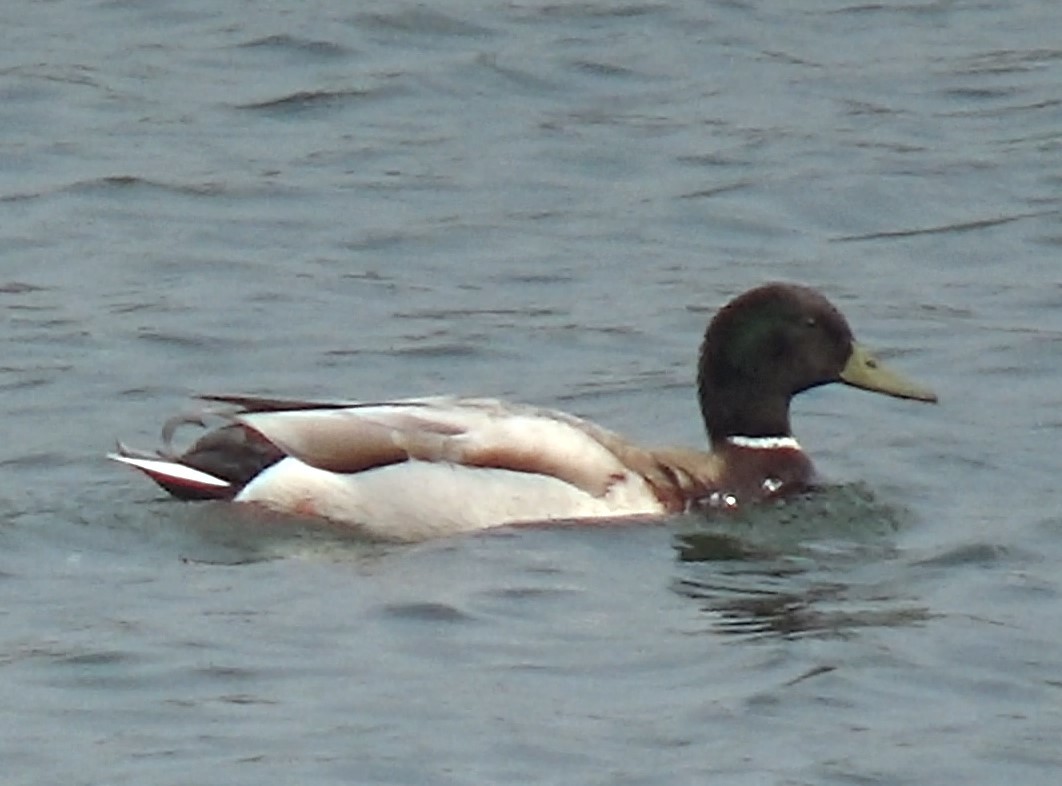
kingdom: Animalia
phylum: Chordata
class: Aves
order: Anseriformes
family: Anatidae
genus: Anas
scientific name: Anas platyrhynchos
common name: Mallard
